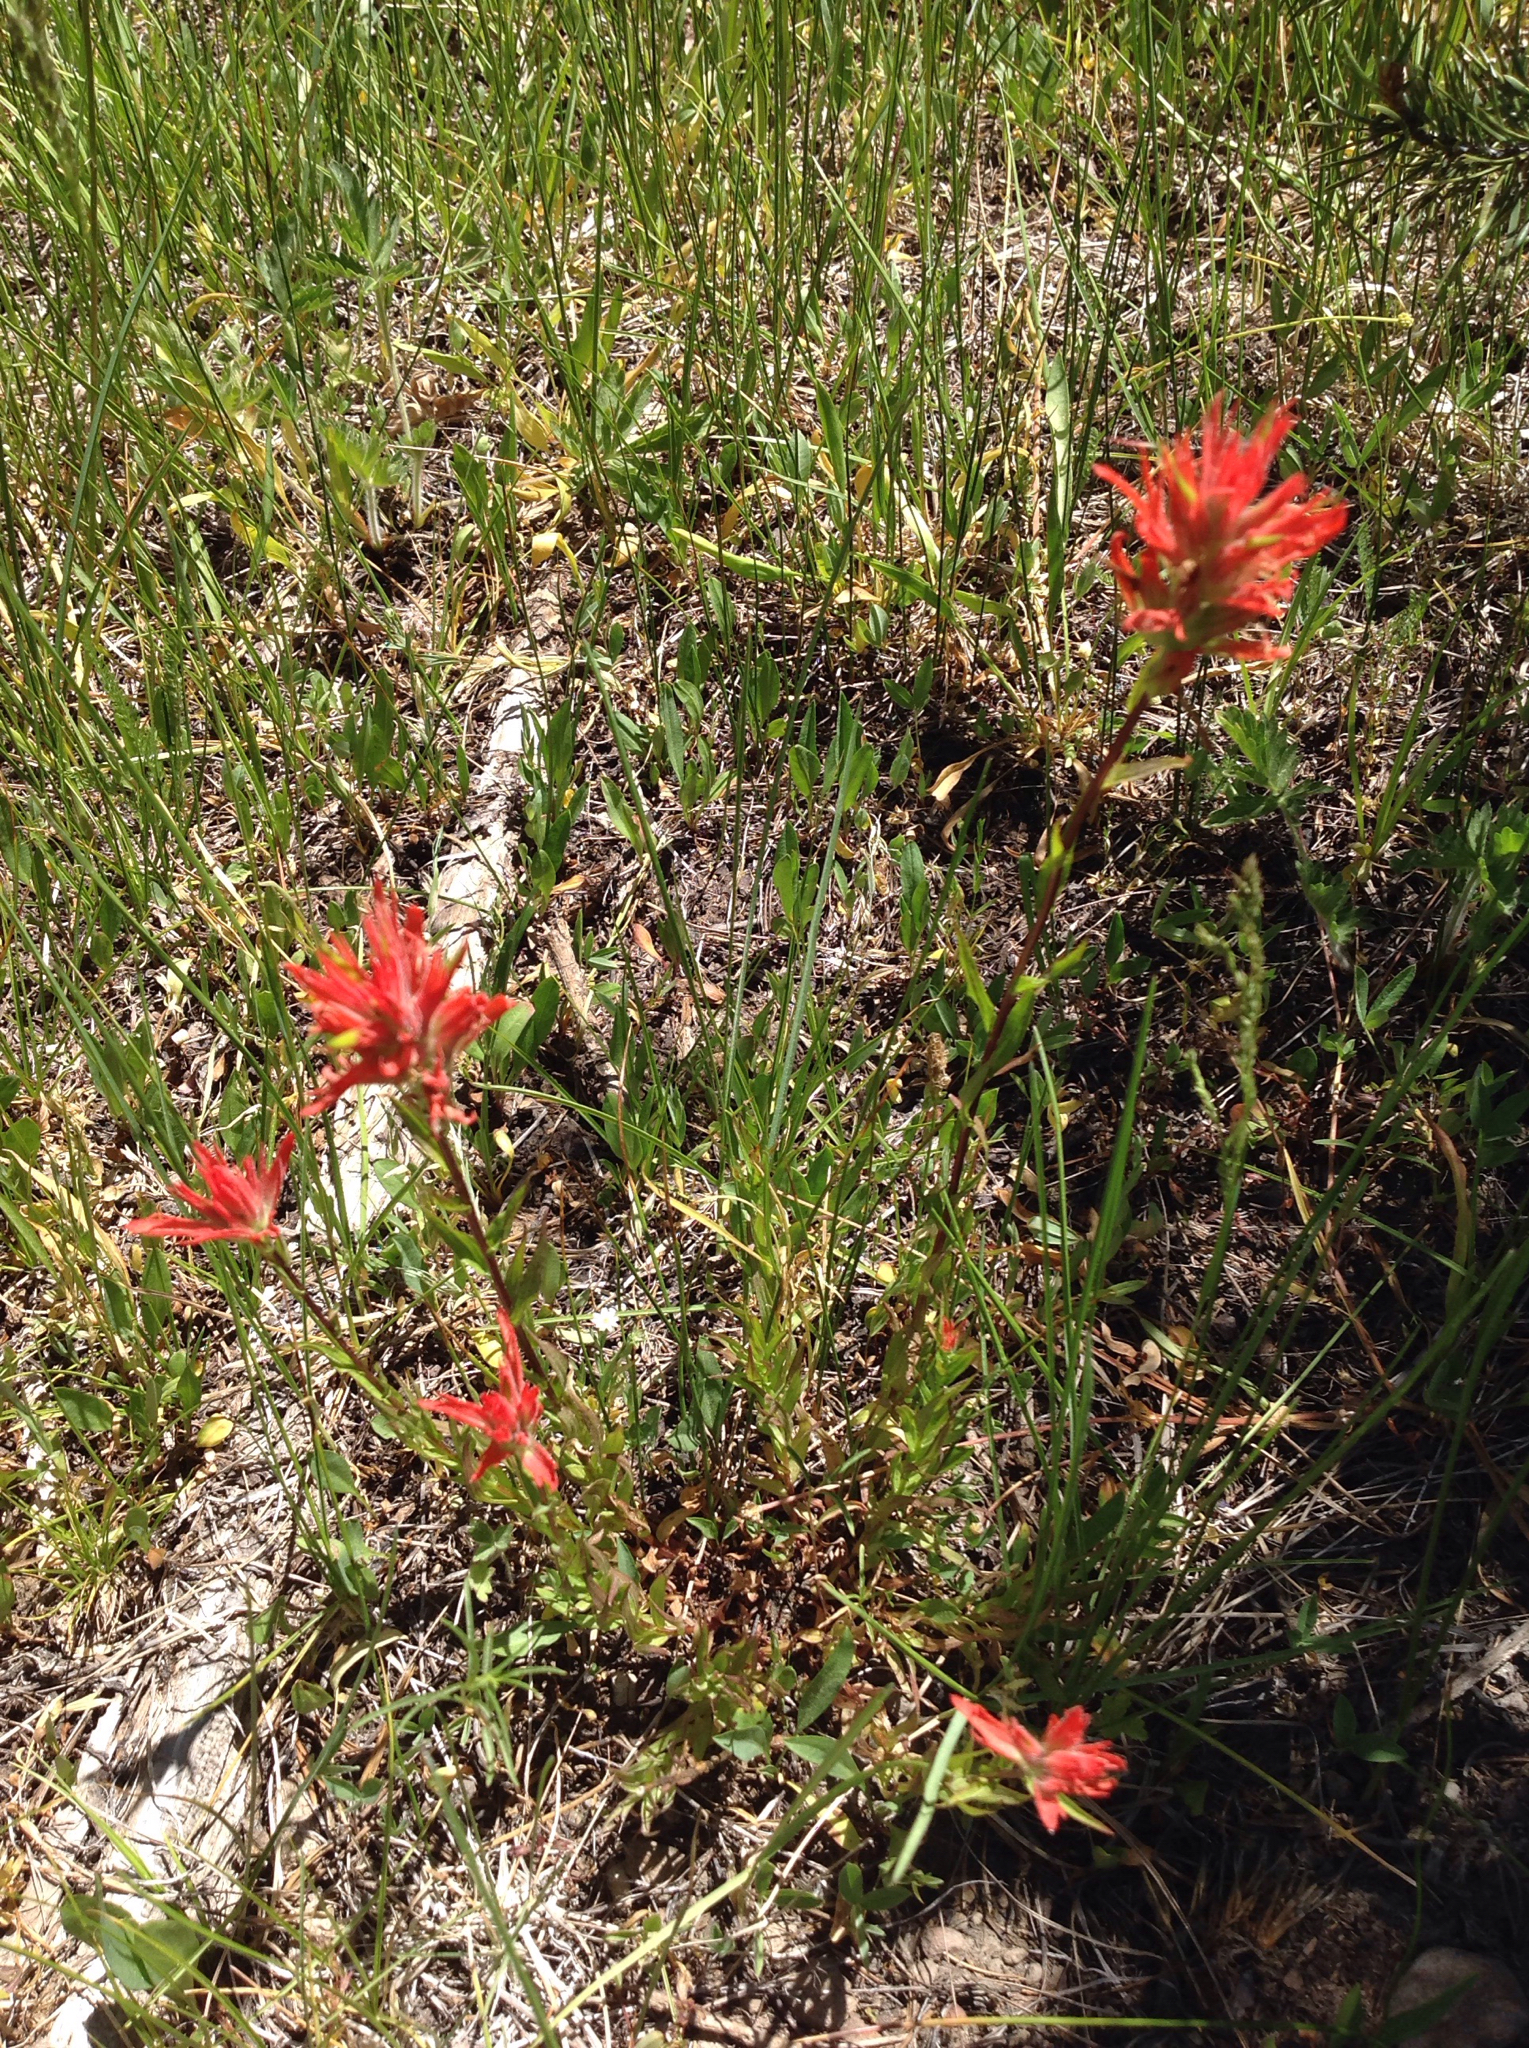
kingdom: Plantae
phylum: Tracheophyta
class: Magnoliopsida
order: Lamiales
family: Orobanchaceae
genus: Castilleja
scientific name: Castilleja miniata
